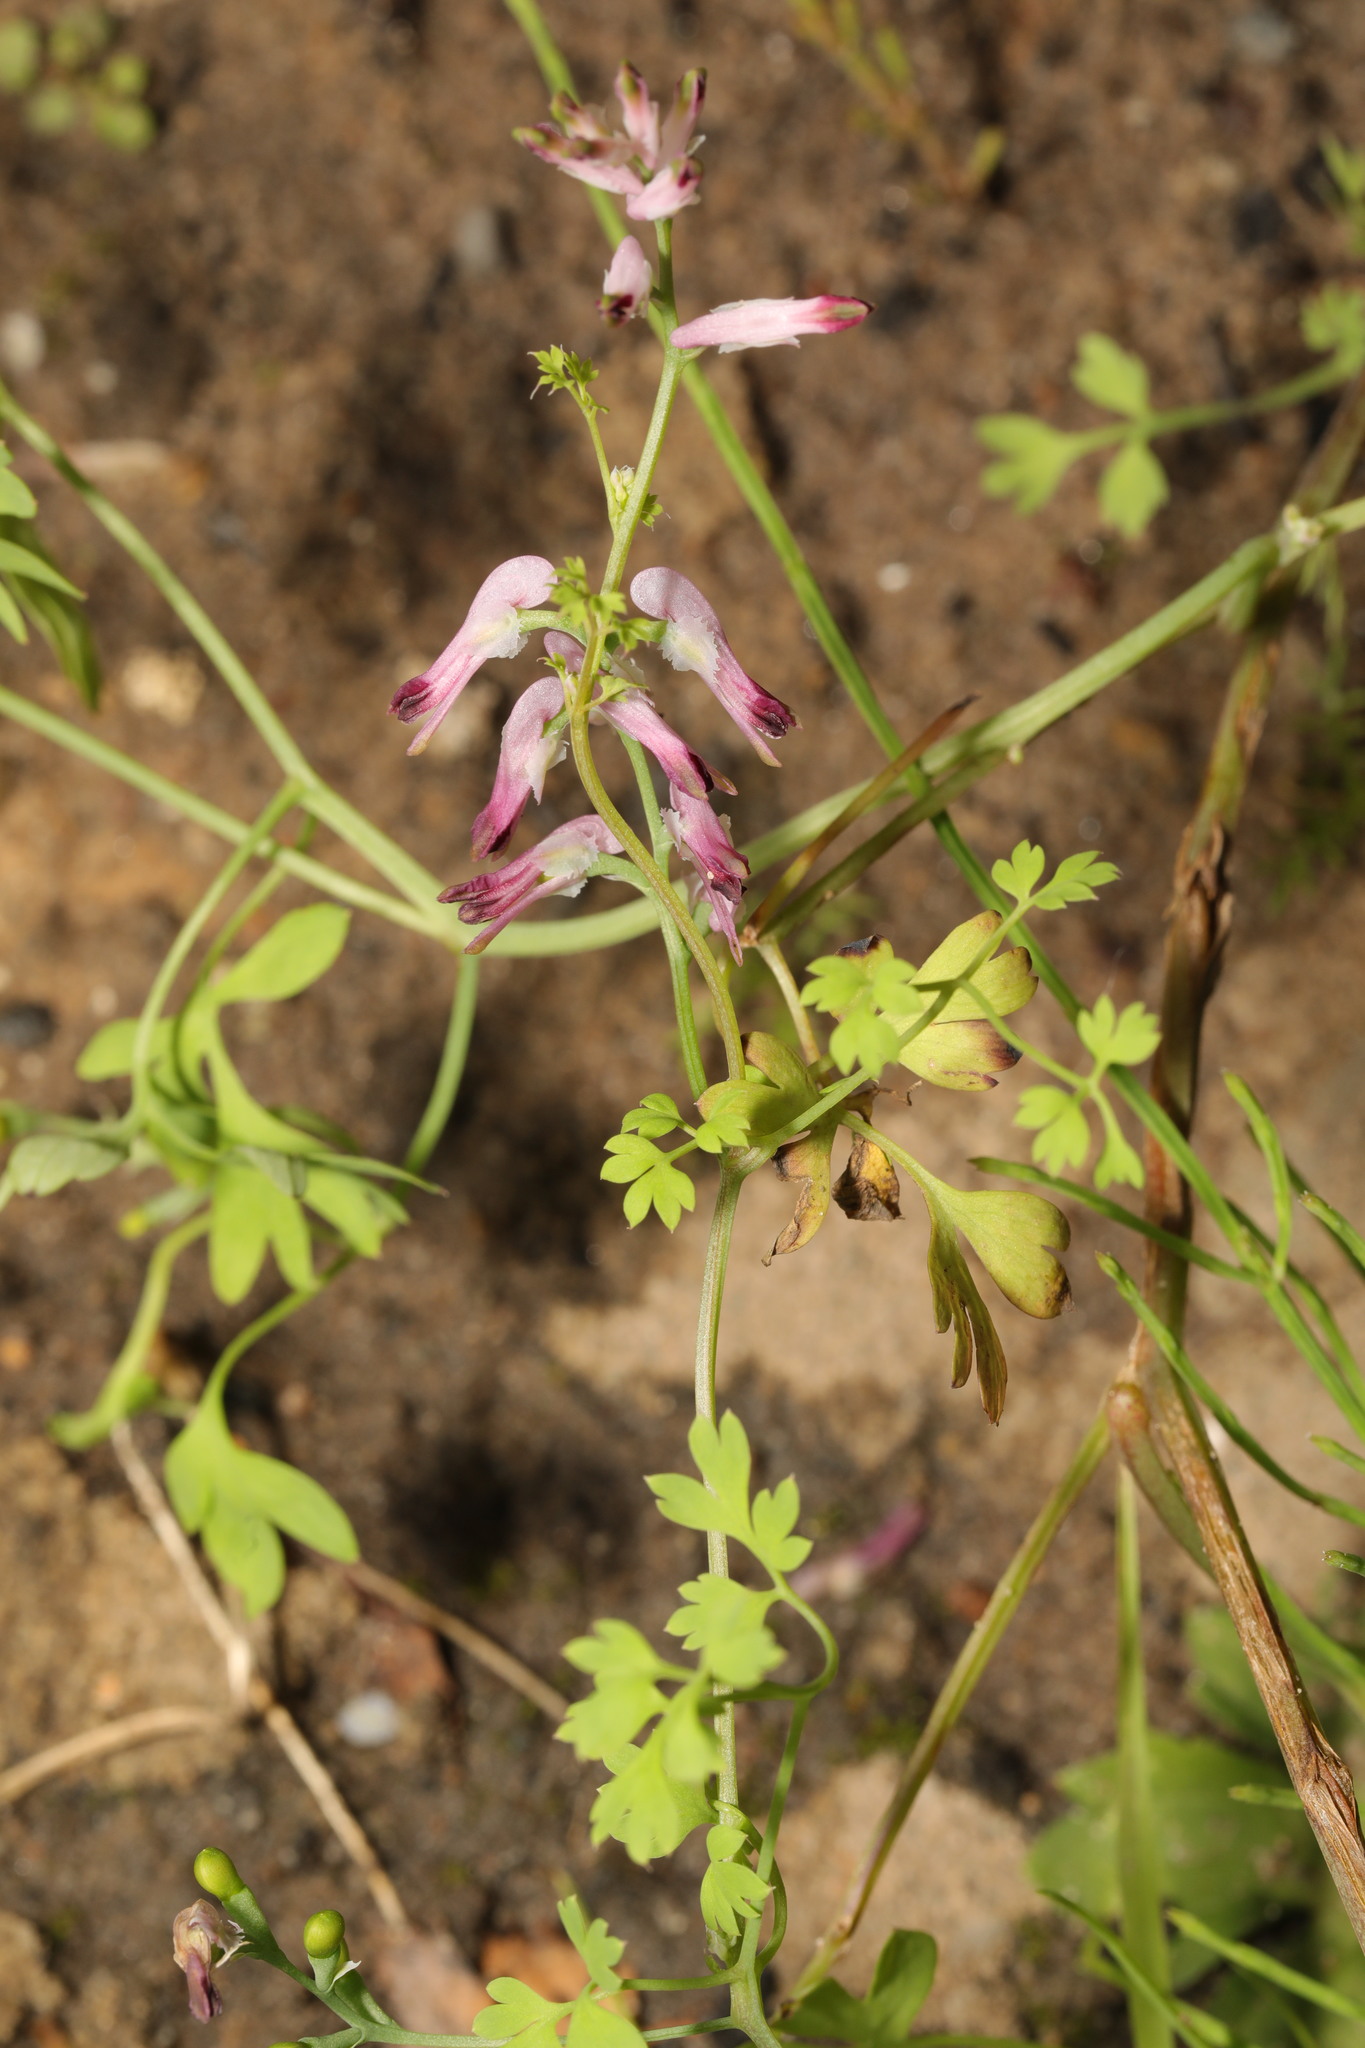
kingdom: Plantae
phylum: Tracheophyta
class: Magnoliopsida
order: Ranunculales
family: Papaveraceae
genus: Fumaria
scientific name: Fumaria muralis
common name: Common ramping-fumitory
